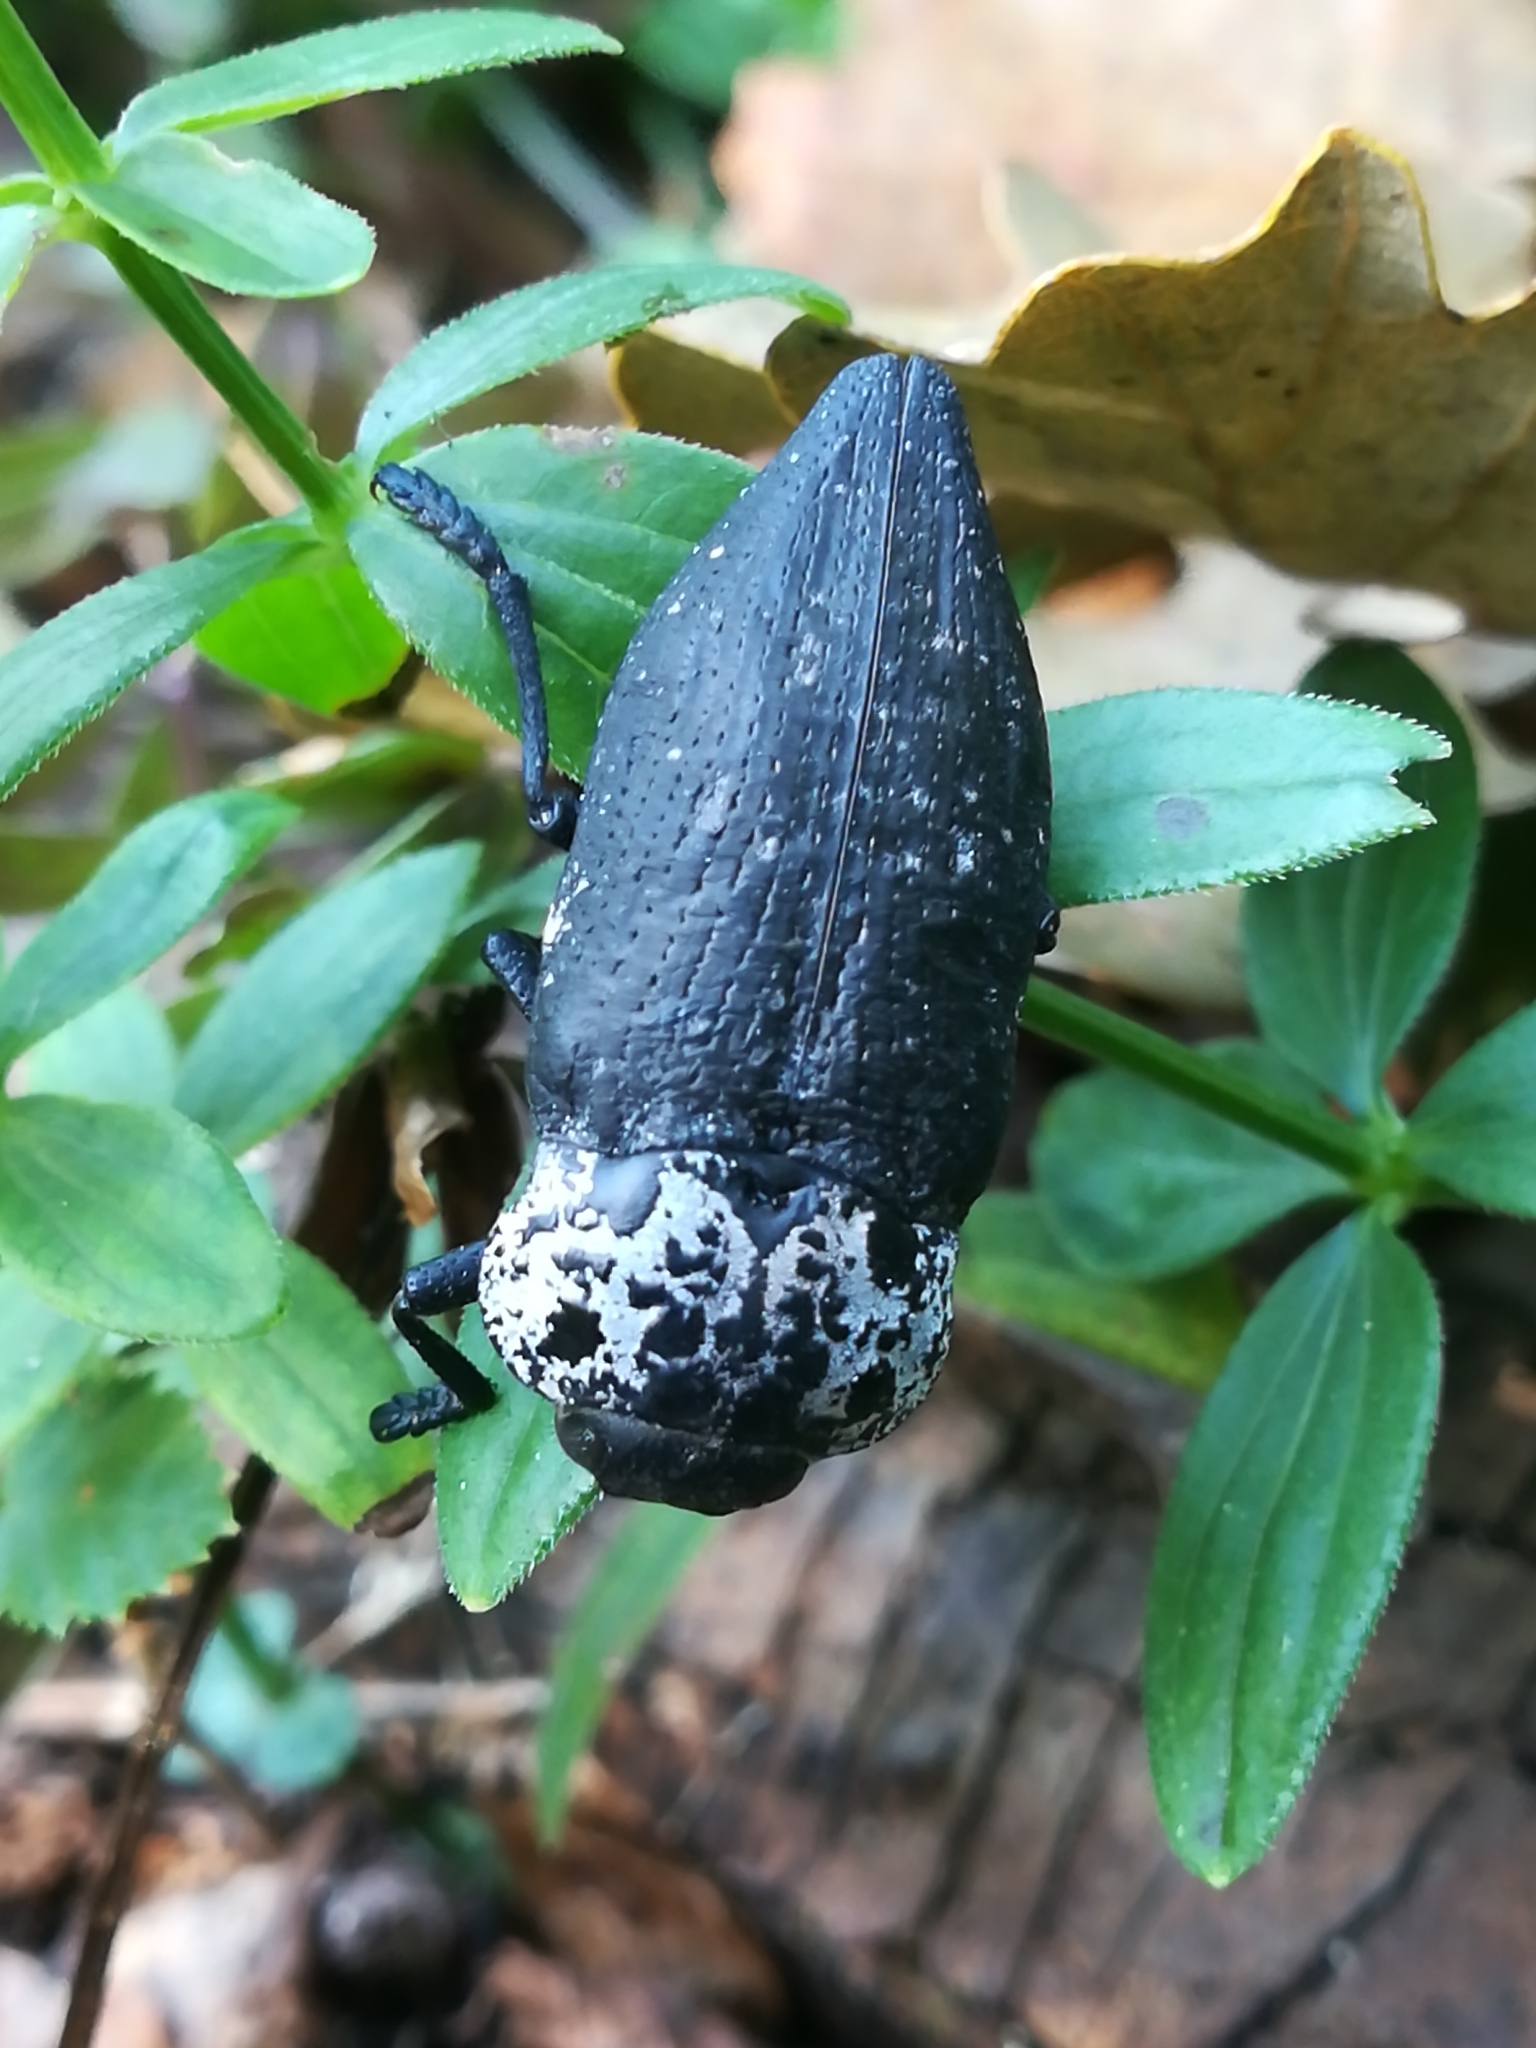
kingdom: Animalia
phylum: Arthropoda
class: Insecta
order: Coleoptera
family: Buprestidae
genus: Capnodis
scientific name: Capnodis tenebrionis
